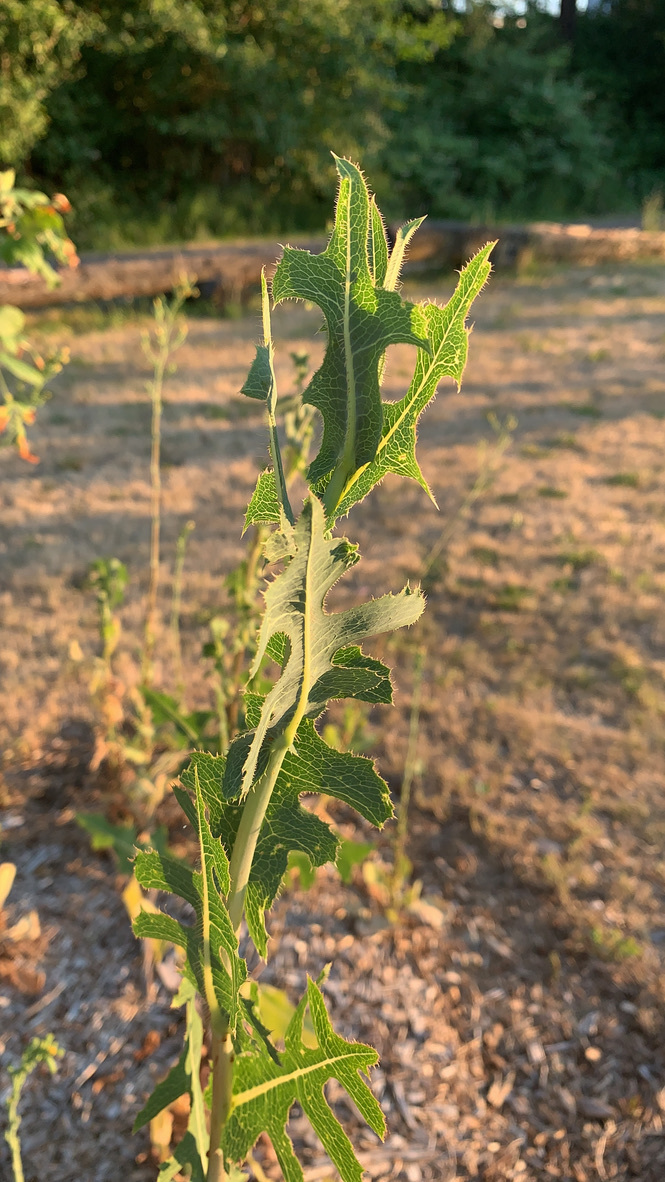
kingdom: Plantae
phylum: Tracheophyta
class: Magnoliopsida
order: Asterales
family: Asteraceae
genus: Lactuca
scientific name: Lactuca serriola
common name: Prickly lettuce
